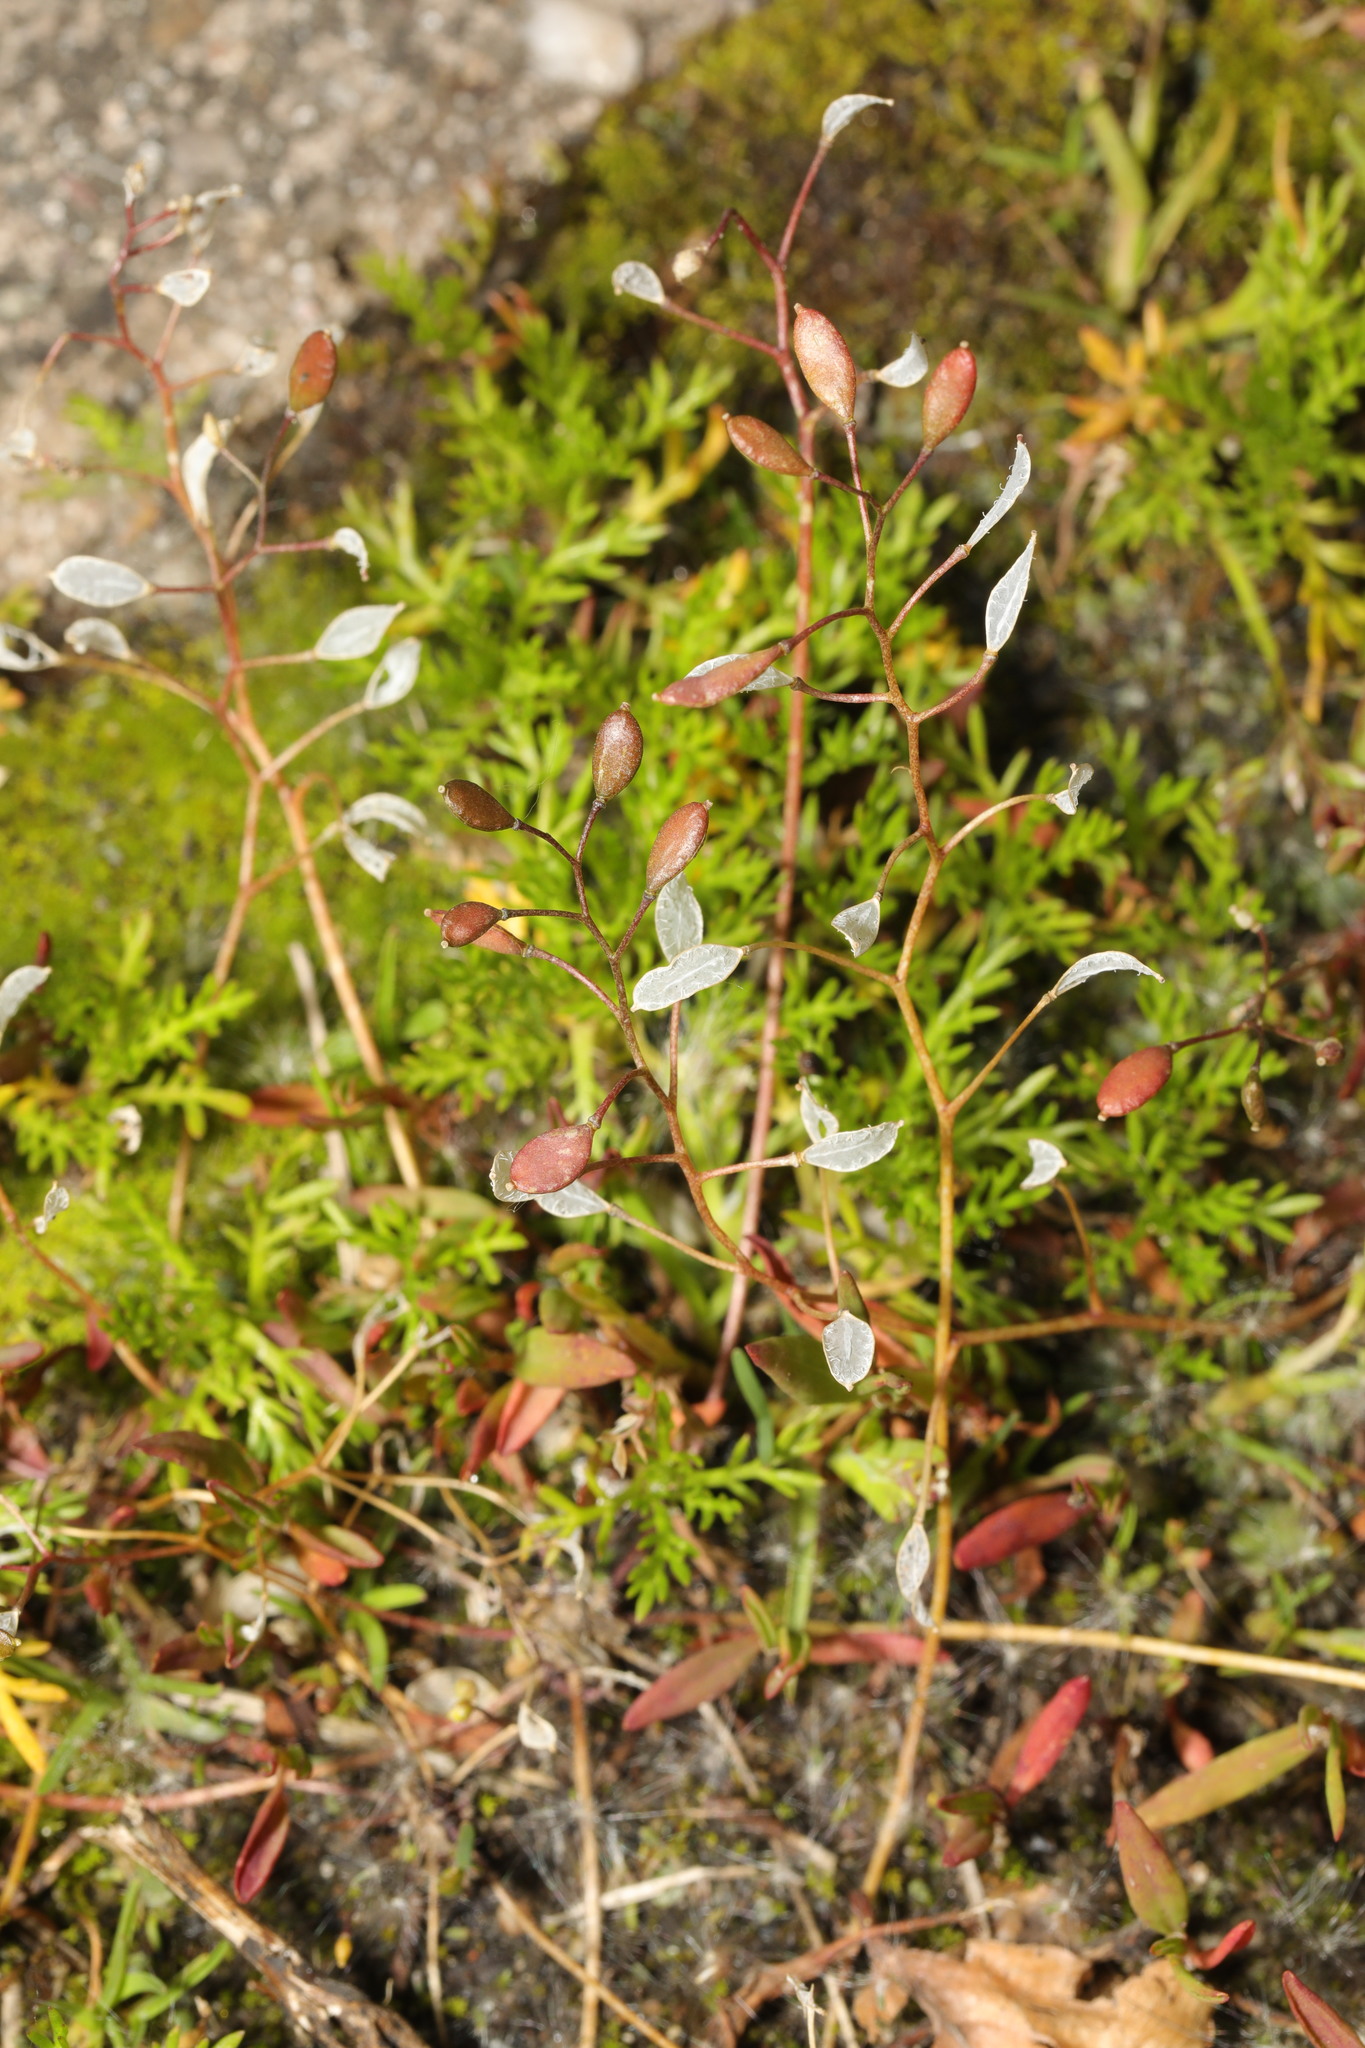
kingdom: Plantae
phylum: Tracheophyta
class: Magnoliopsida
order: Brassicales
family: Brassicaceae
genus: Draba
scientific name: Draba verna
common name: Spring draba
